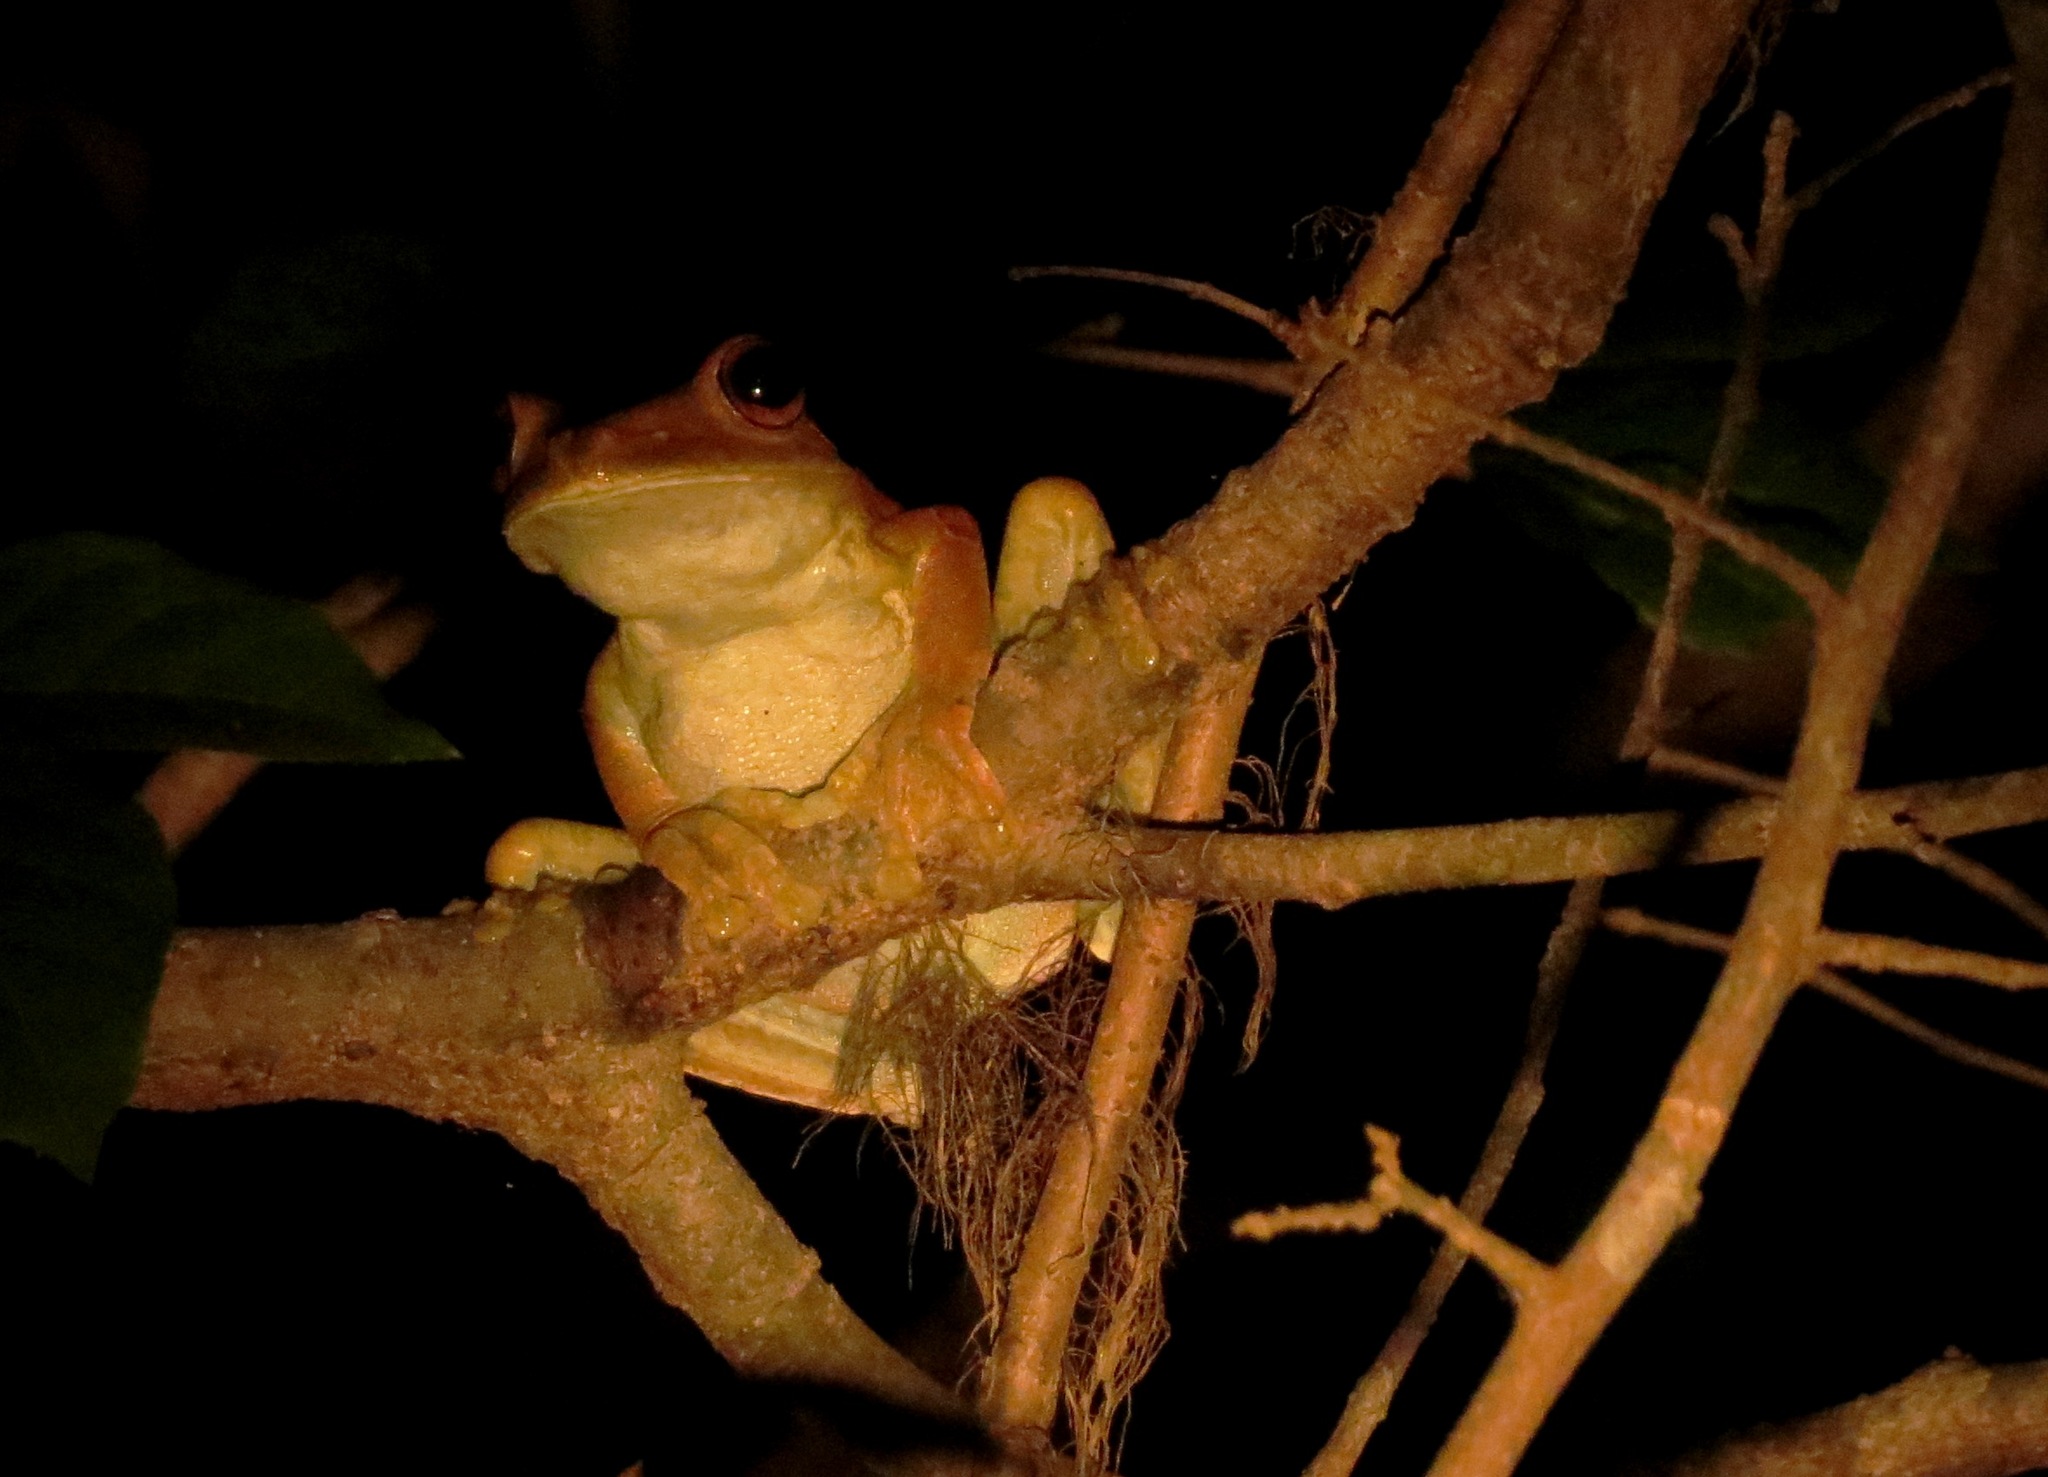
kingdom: Animalia
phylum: Chordata
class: Amphibia
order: Anura
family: Hylidae
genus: Boana
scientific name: Boana boans
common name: Giant gladiator treefrog
